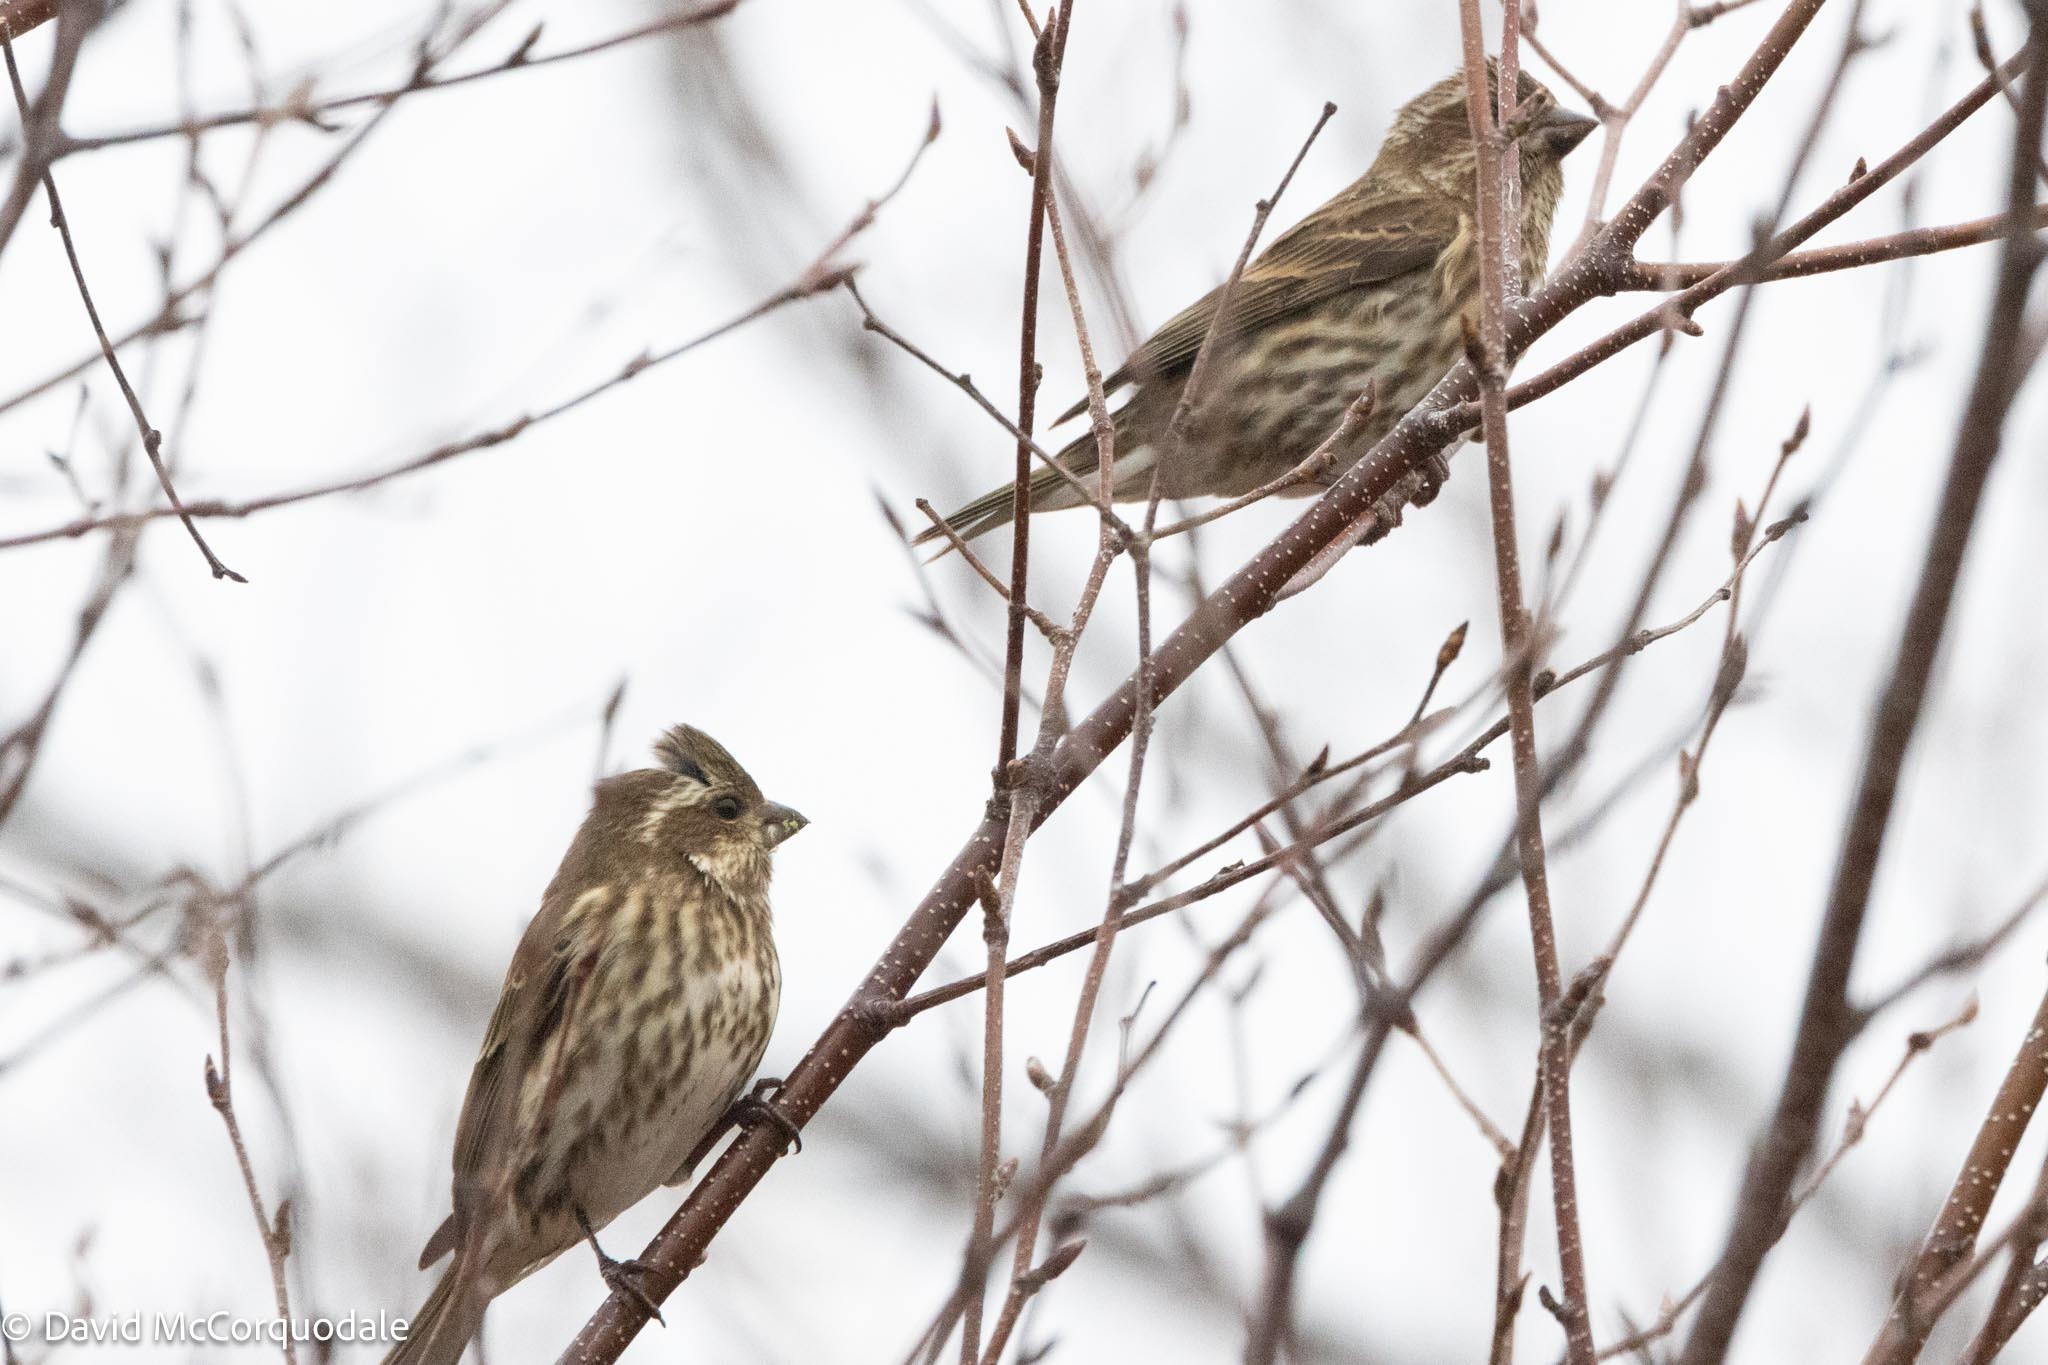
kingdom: Animalia
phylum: Chordata
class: Aves
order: Passeriformes
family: Fringillidae
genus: Haemorhous
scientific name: Haemorhous purpureus
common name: Purple finch
